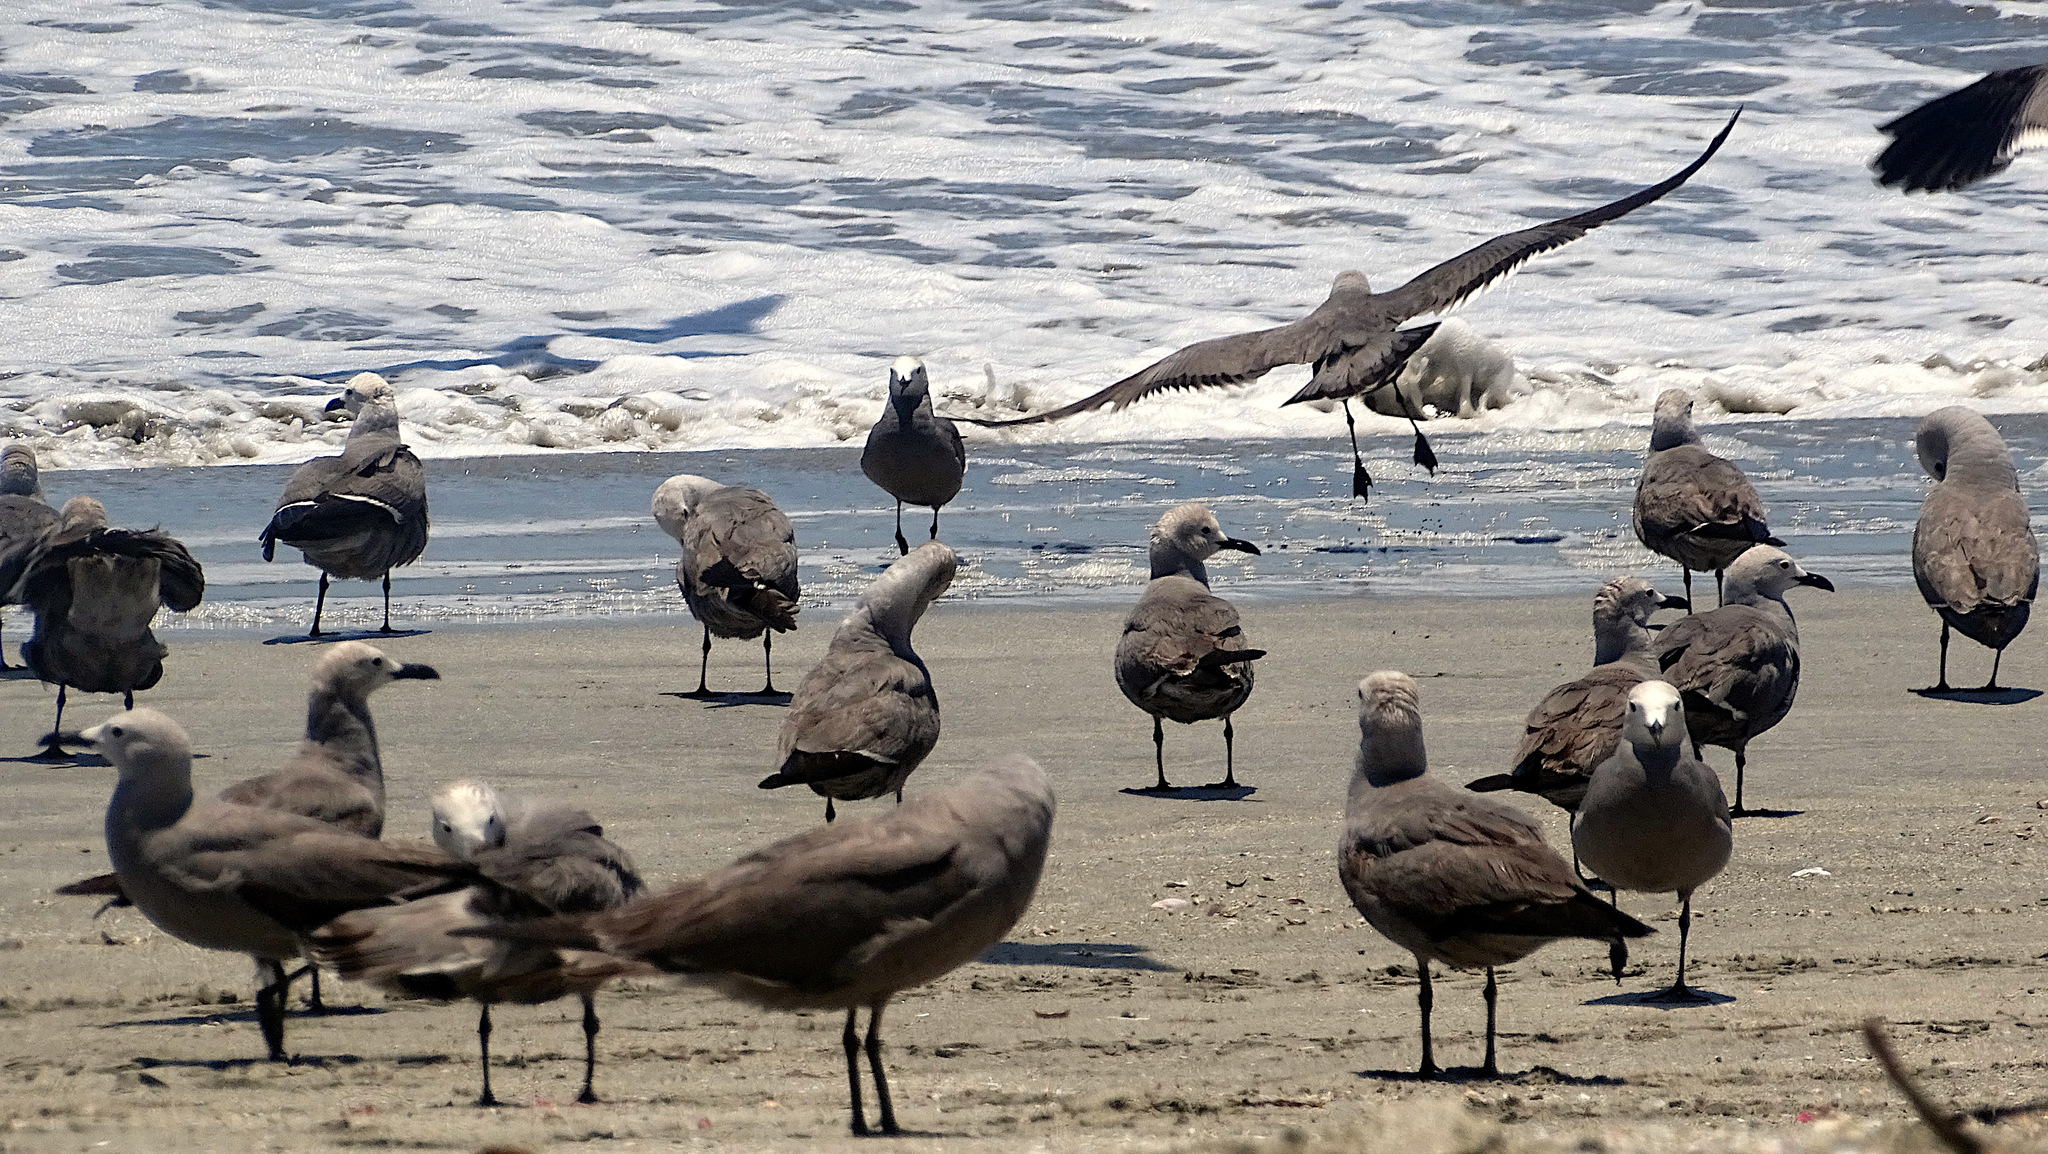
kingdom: Animalia
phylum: Chordata
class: Aves
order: Charadriiformes
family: Laridae
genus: Leucophaeus
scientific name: Leucophaeus modestus
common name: Gray gull
